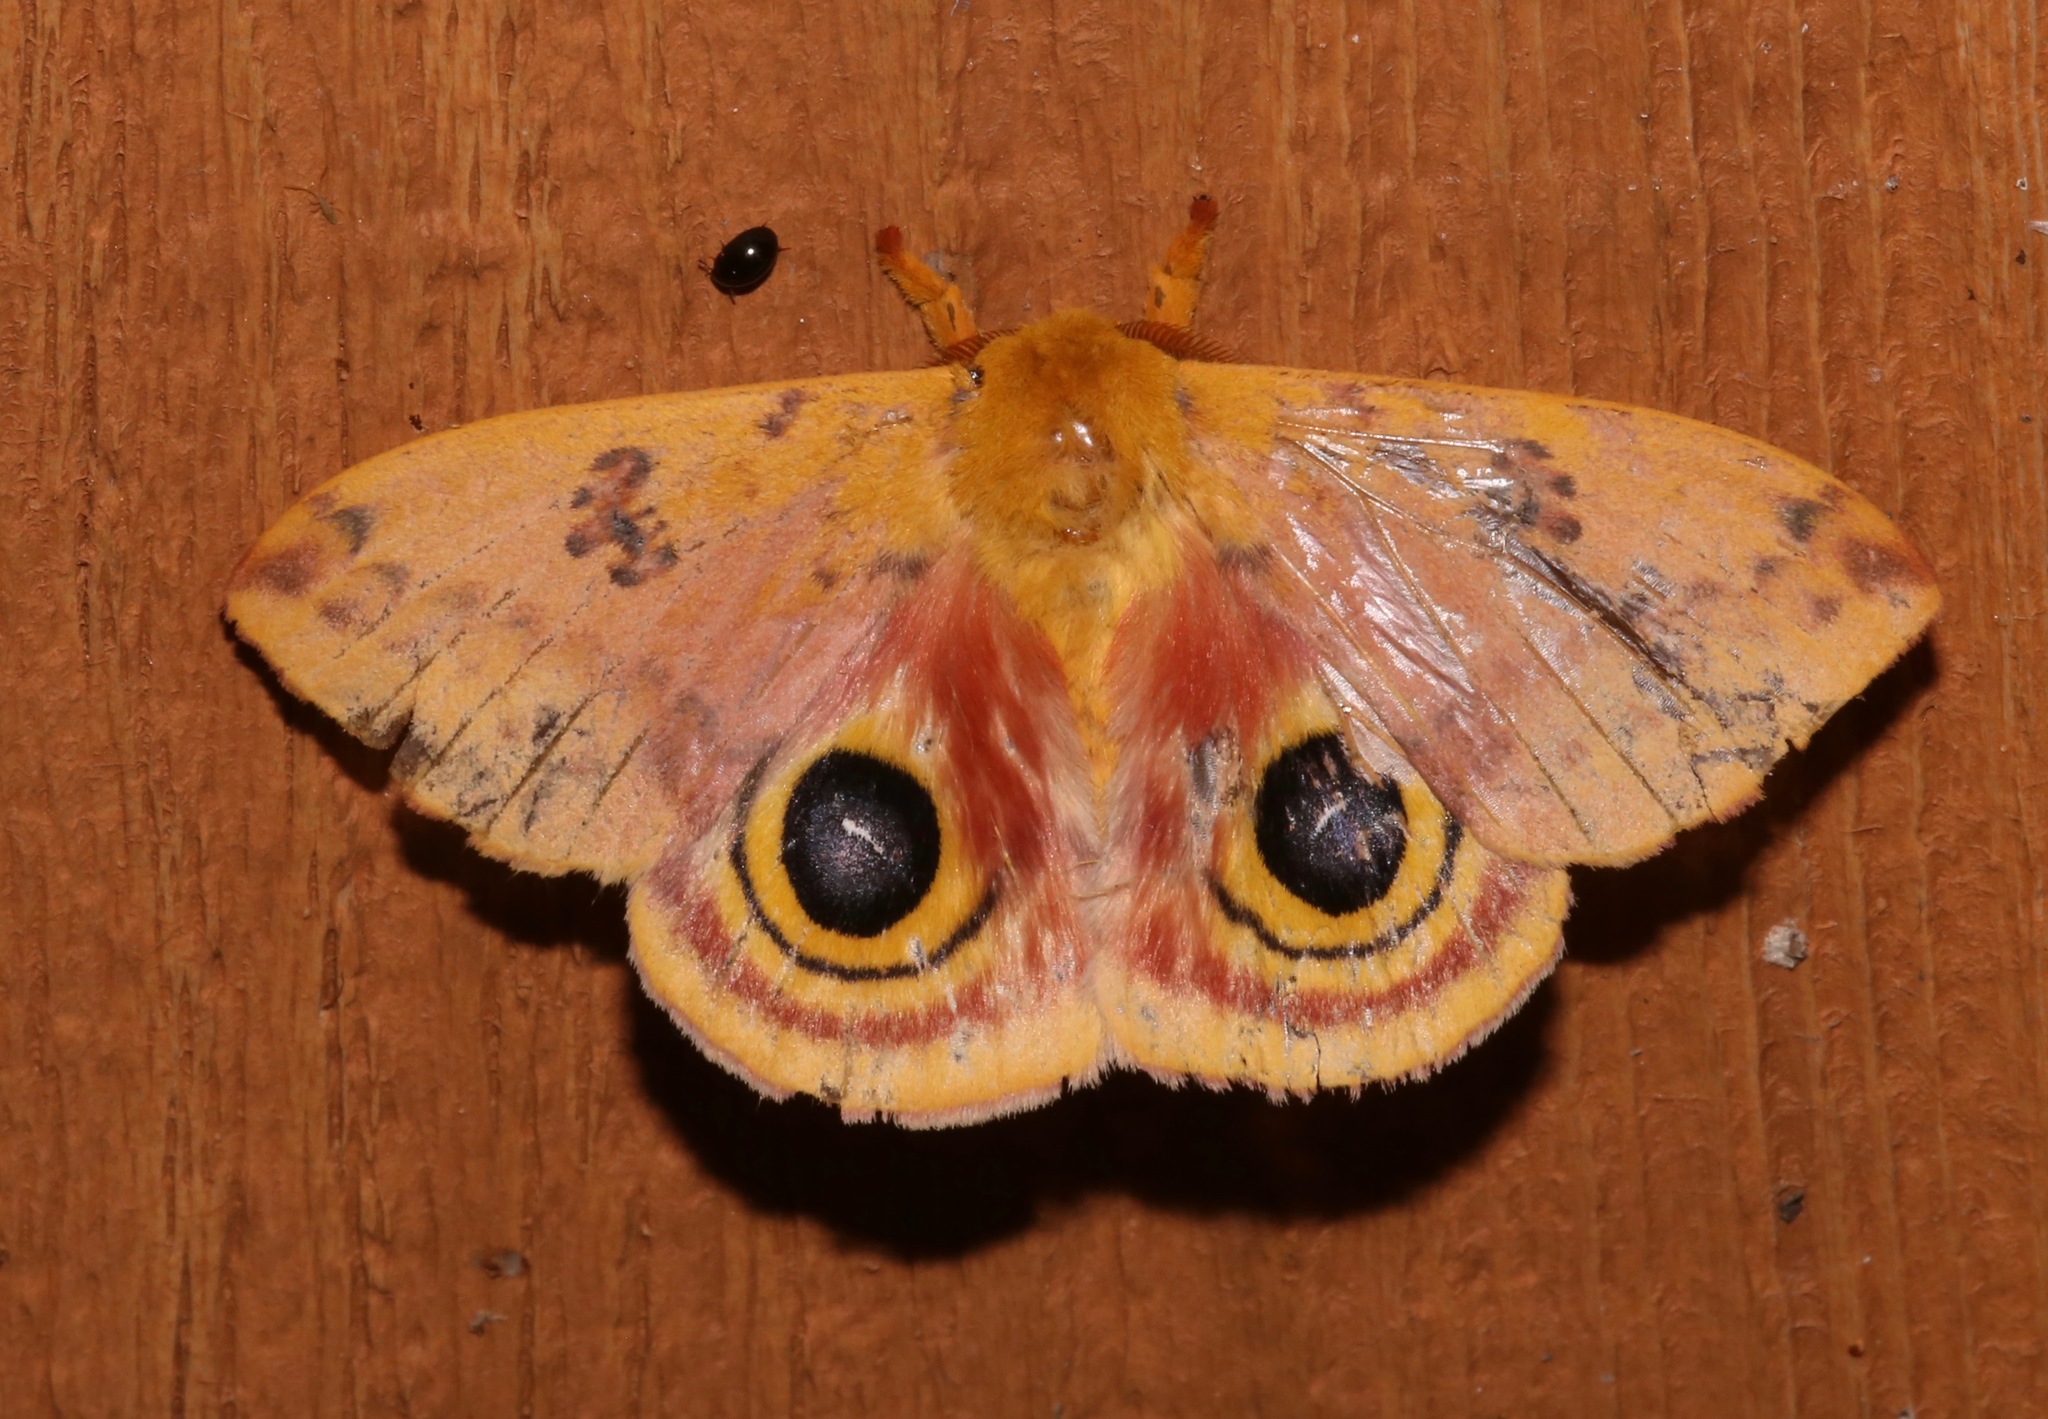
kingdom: Animalia
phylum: Arthropoda
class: Insecta
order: Lepidoptera
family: Saturniidae
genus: Automeris
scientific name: Automeris io
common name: Io moth
